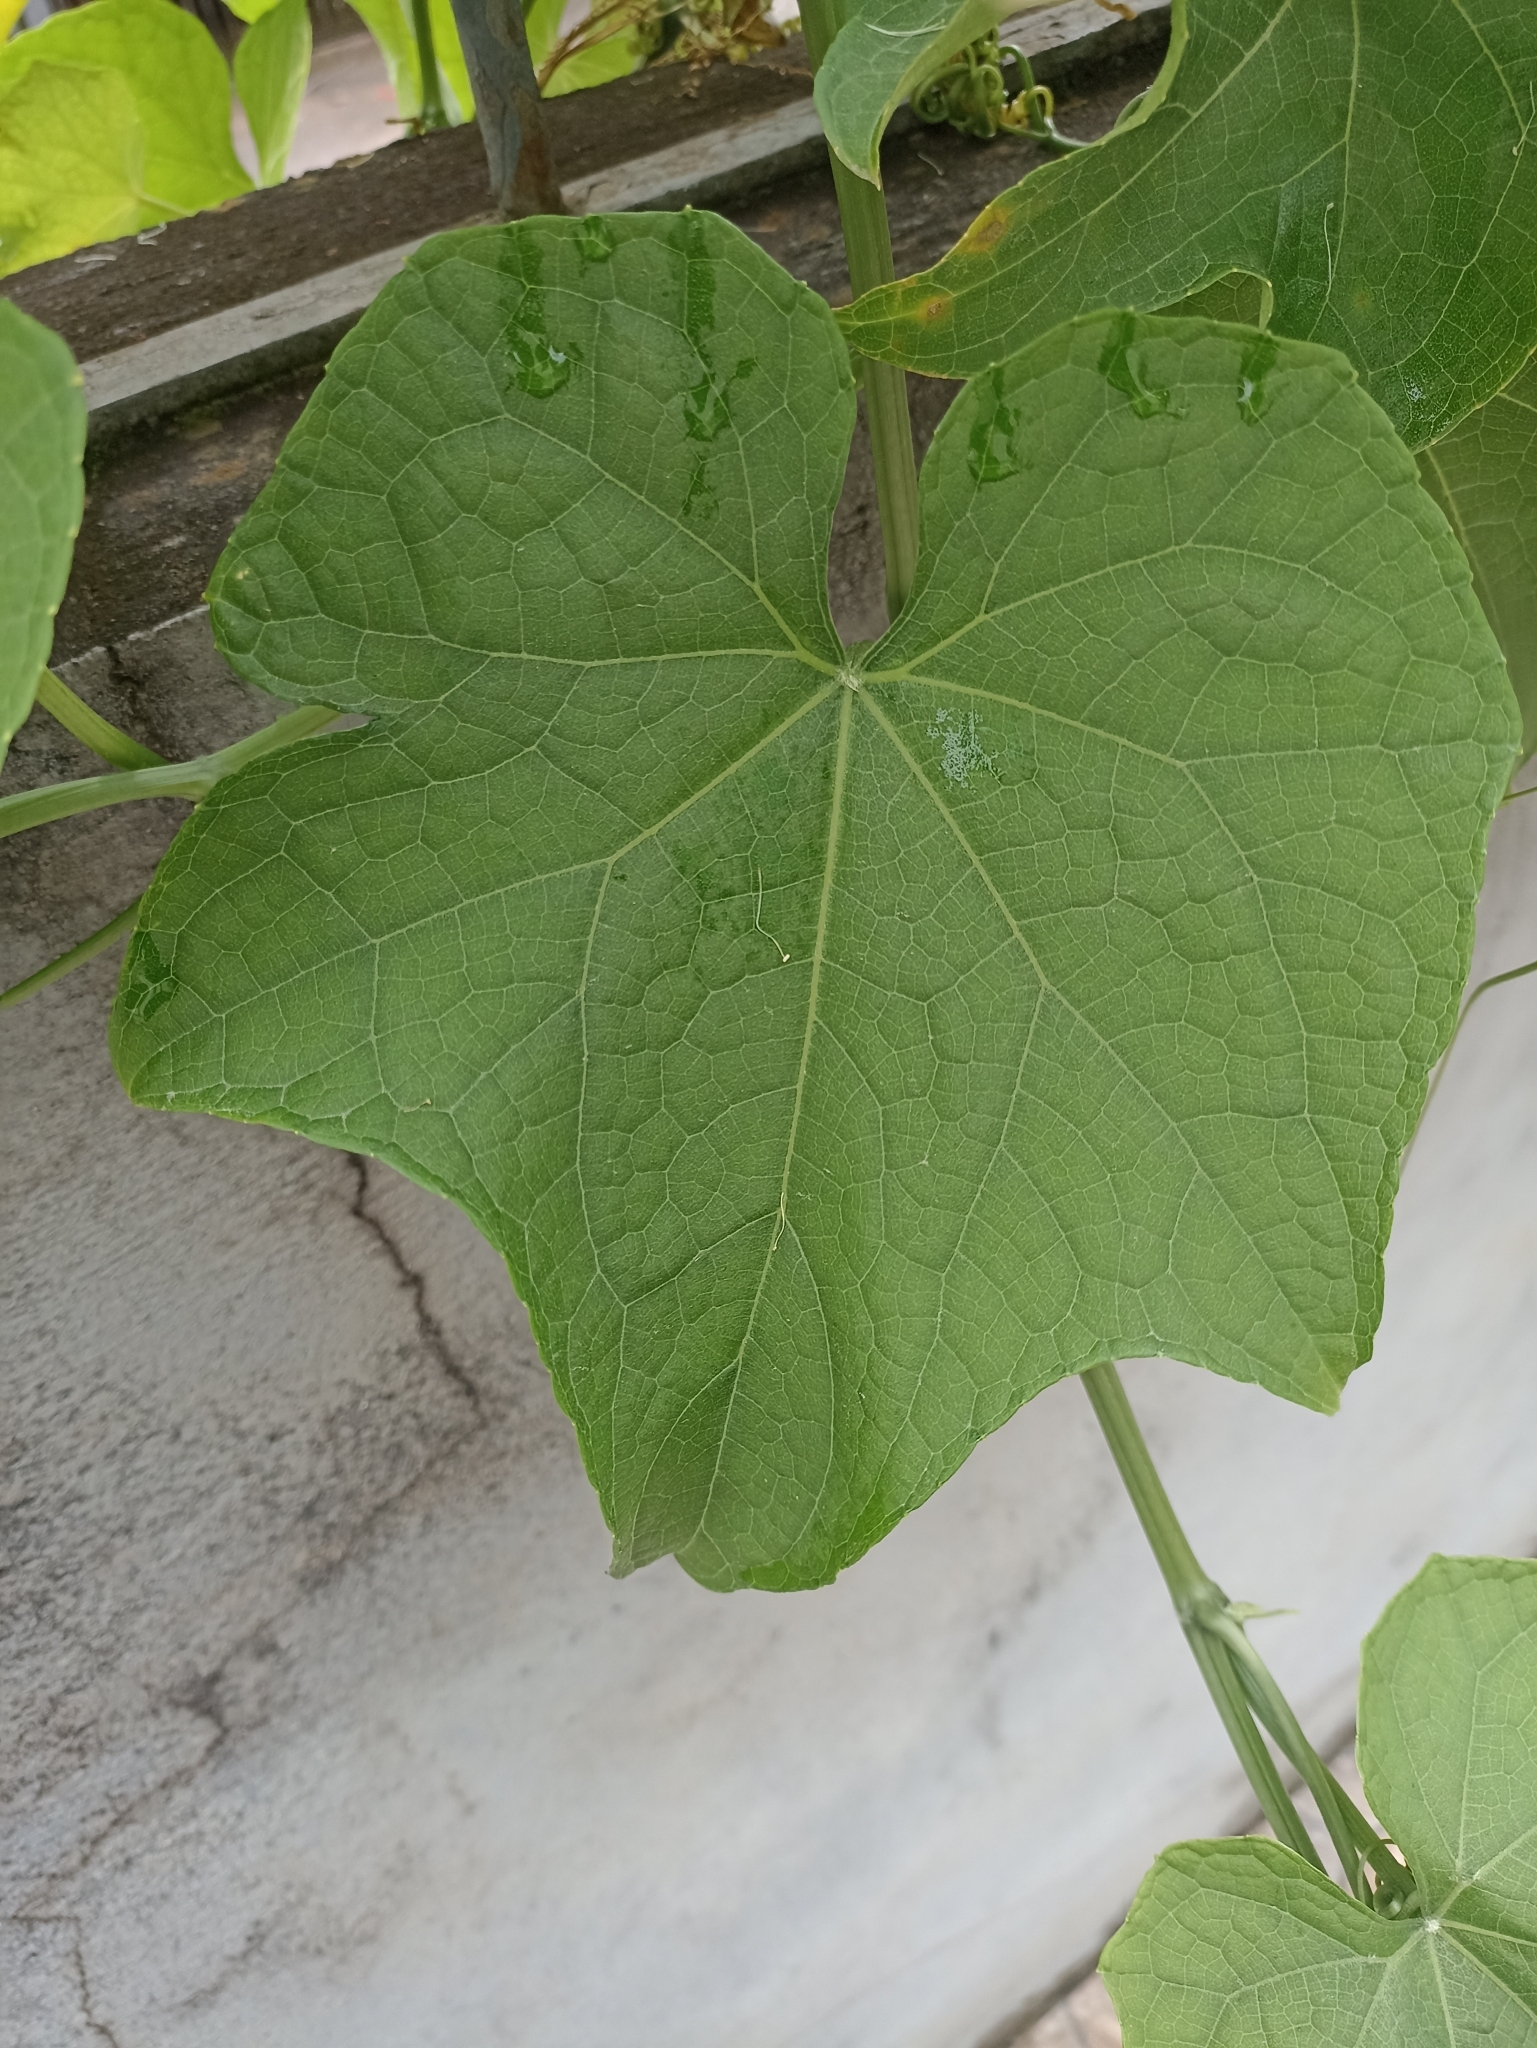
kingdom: Plantae
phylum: Tracheophyta
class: Magnoliopsida
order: Cucurbitales
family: Cucurbitaceae
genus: Sechium
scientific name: Sechium edule
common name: Chayote
